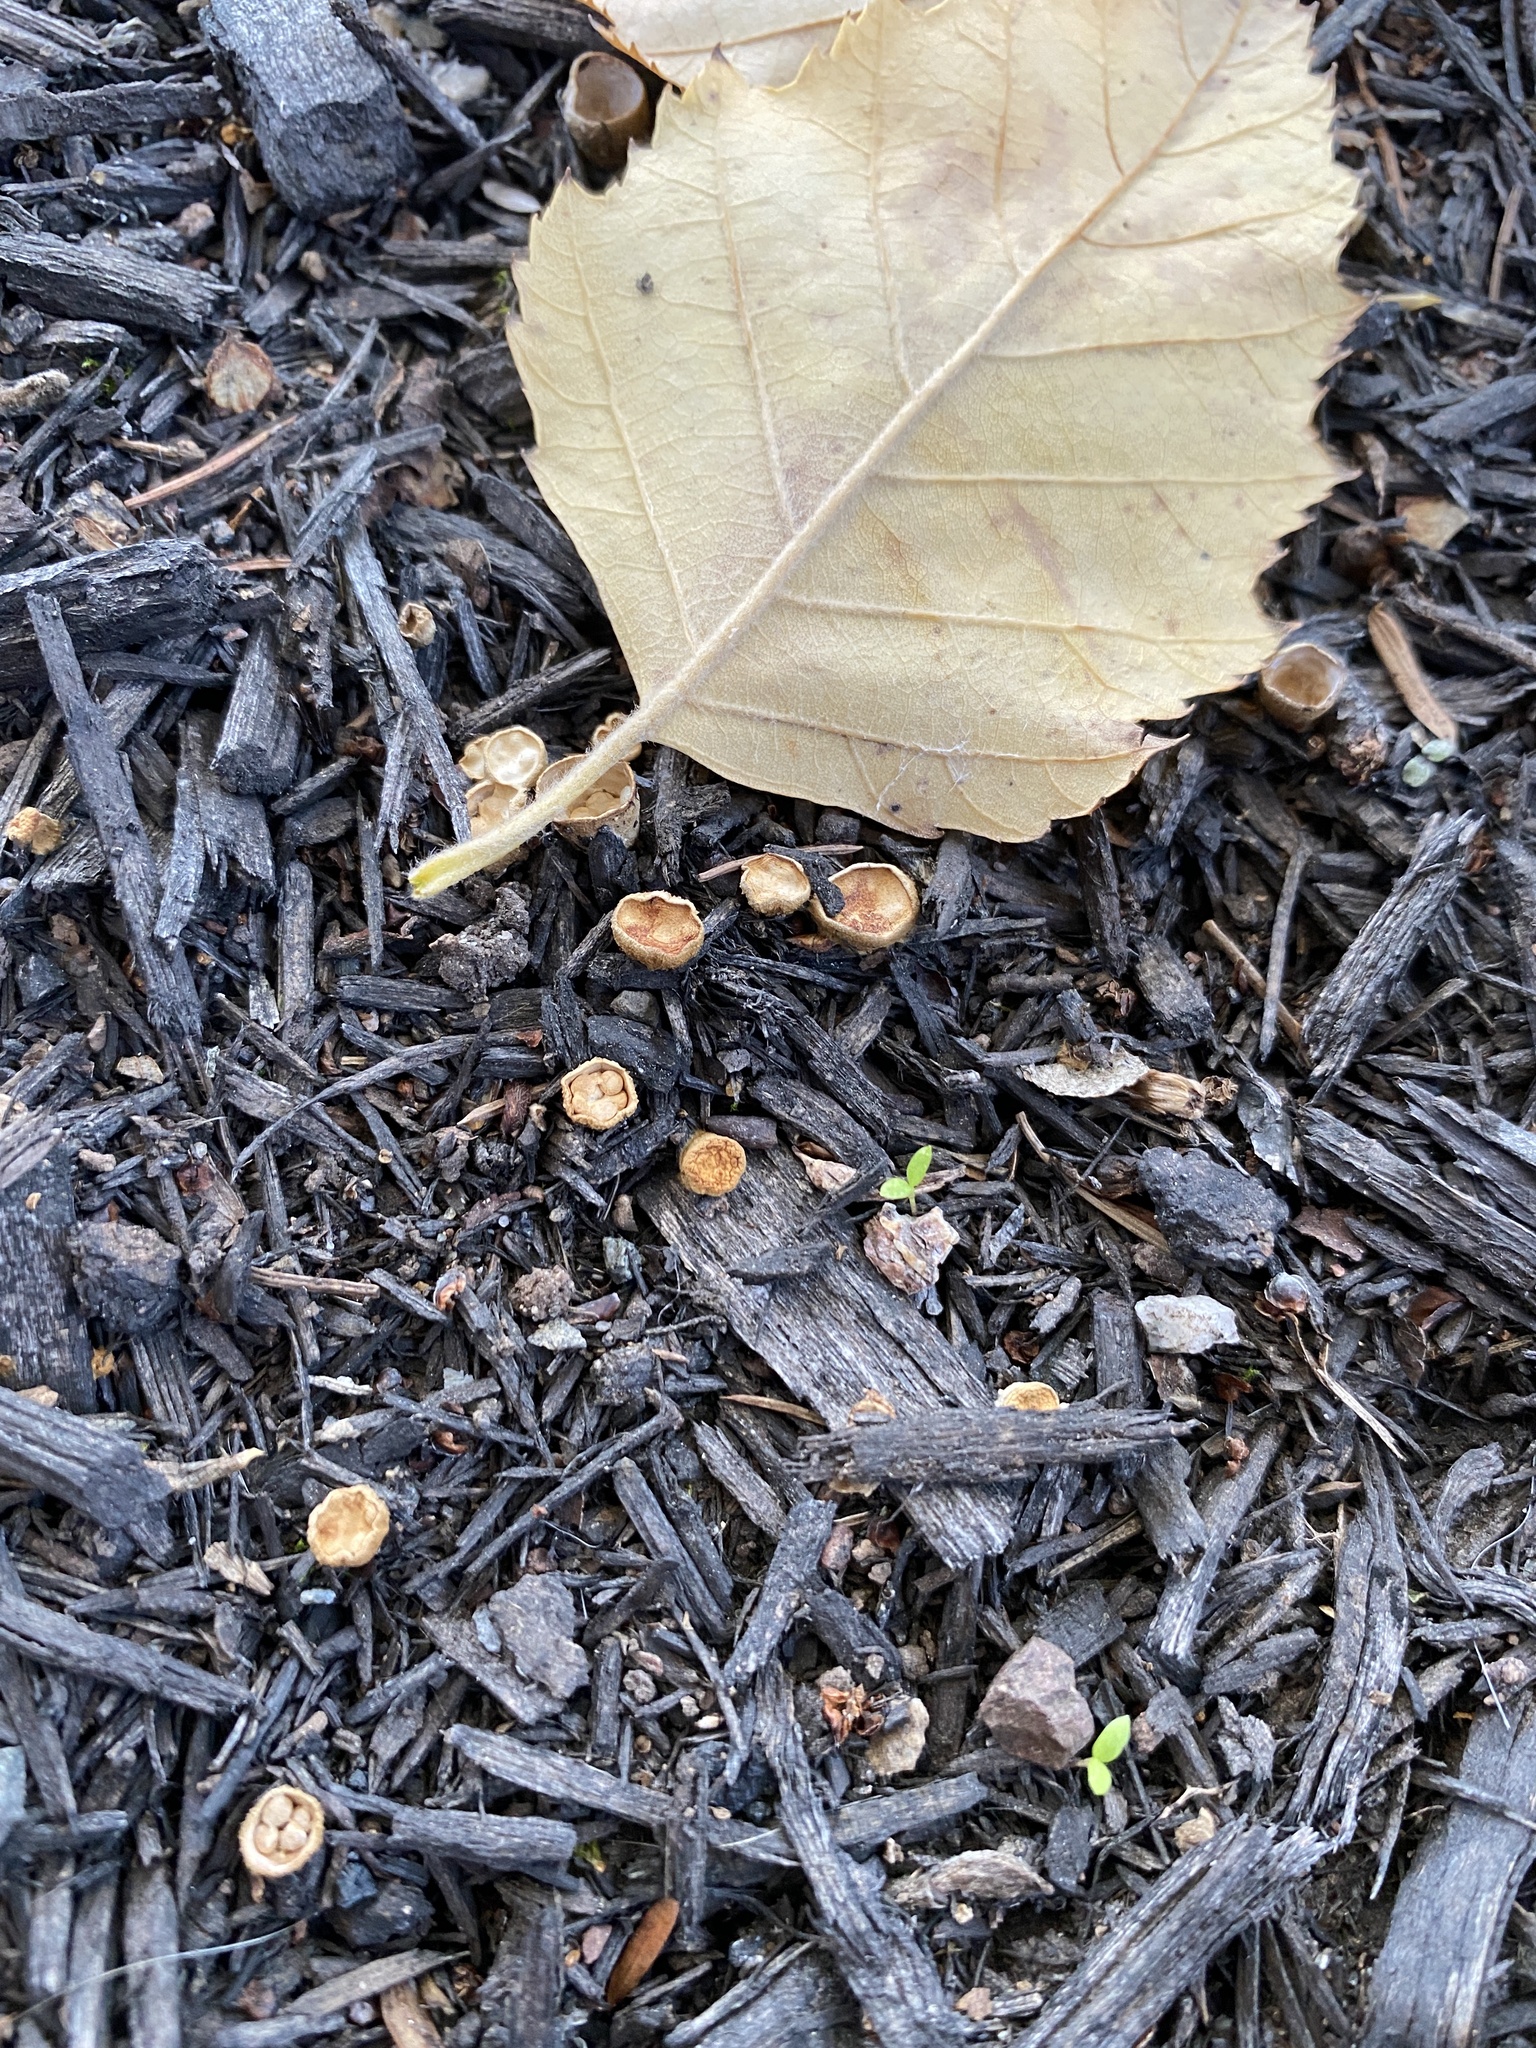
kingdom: Fungi
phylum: Basidiomycota
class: Agaricomycetes
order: Agaricales
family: Nidulariaceae
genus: Crucibulum
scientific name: Crucibulum laeve
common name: Common bird's nest
